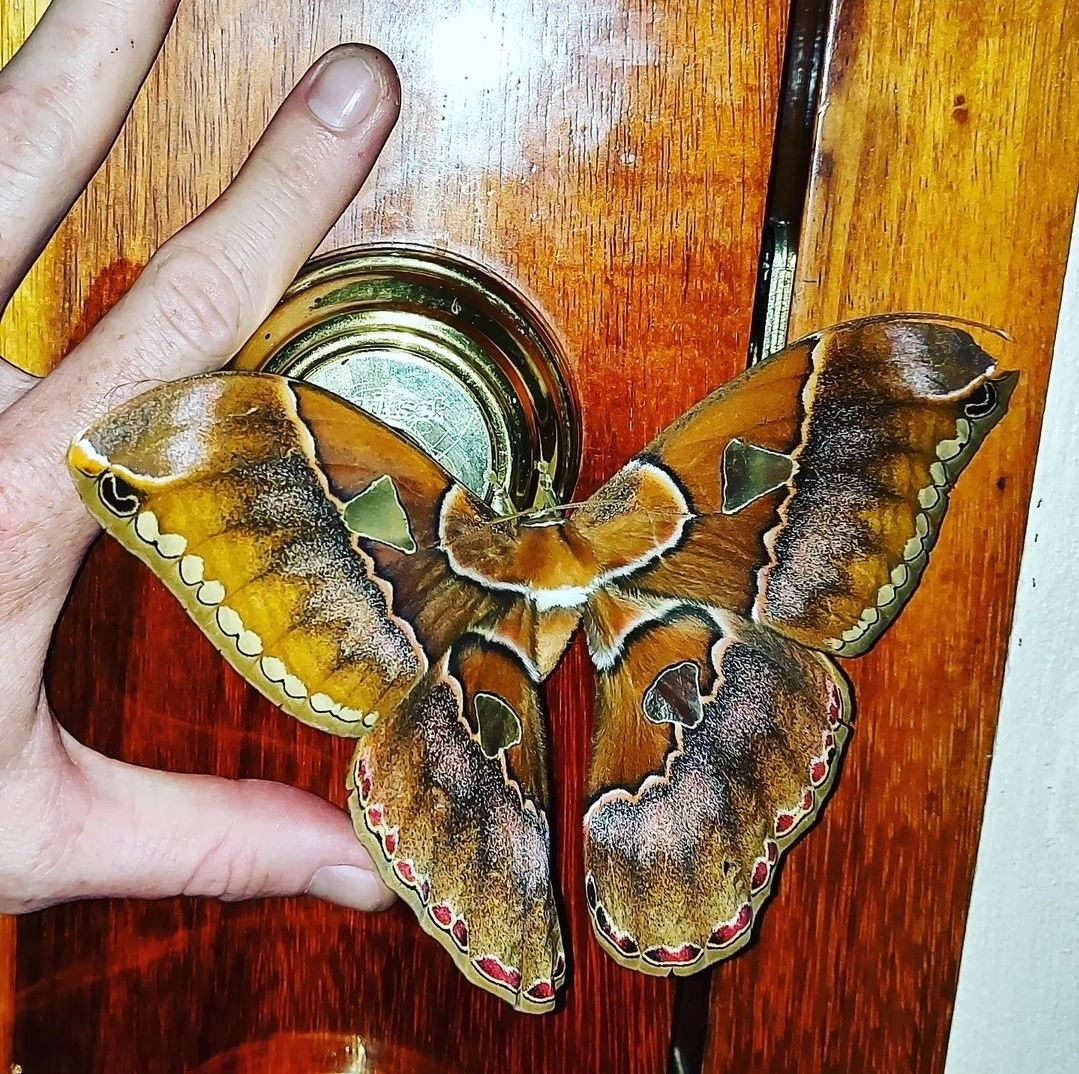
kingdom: Animalia
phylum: Arthropoda
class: Insecta
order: Lepidoptera
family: Saturniidae
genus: Rothschildia
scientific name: Rothschildia lebeau
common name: Lebeau's rothschildia
